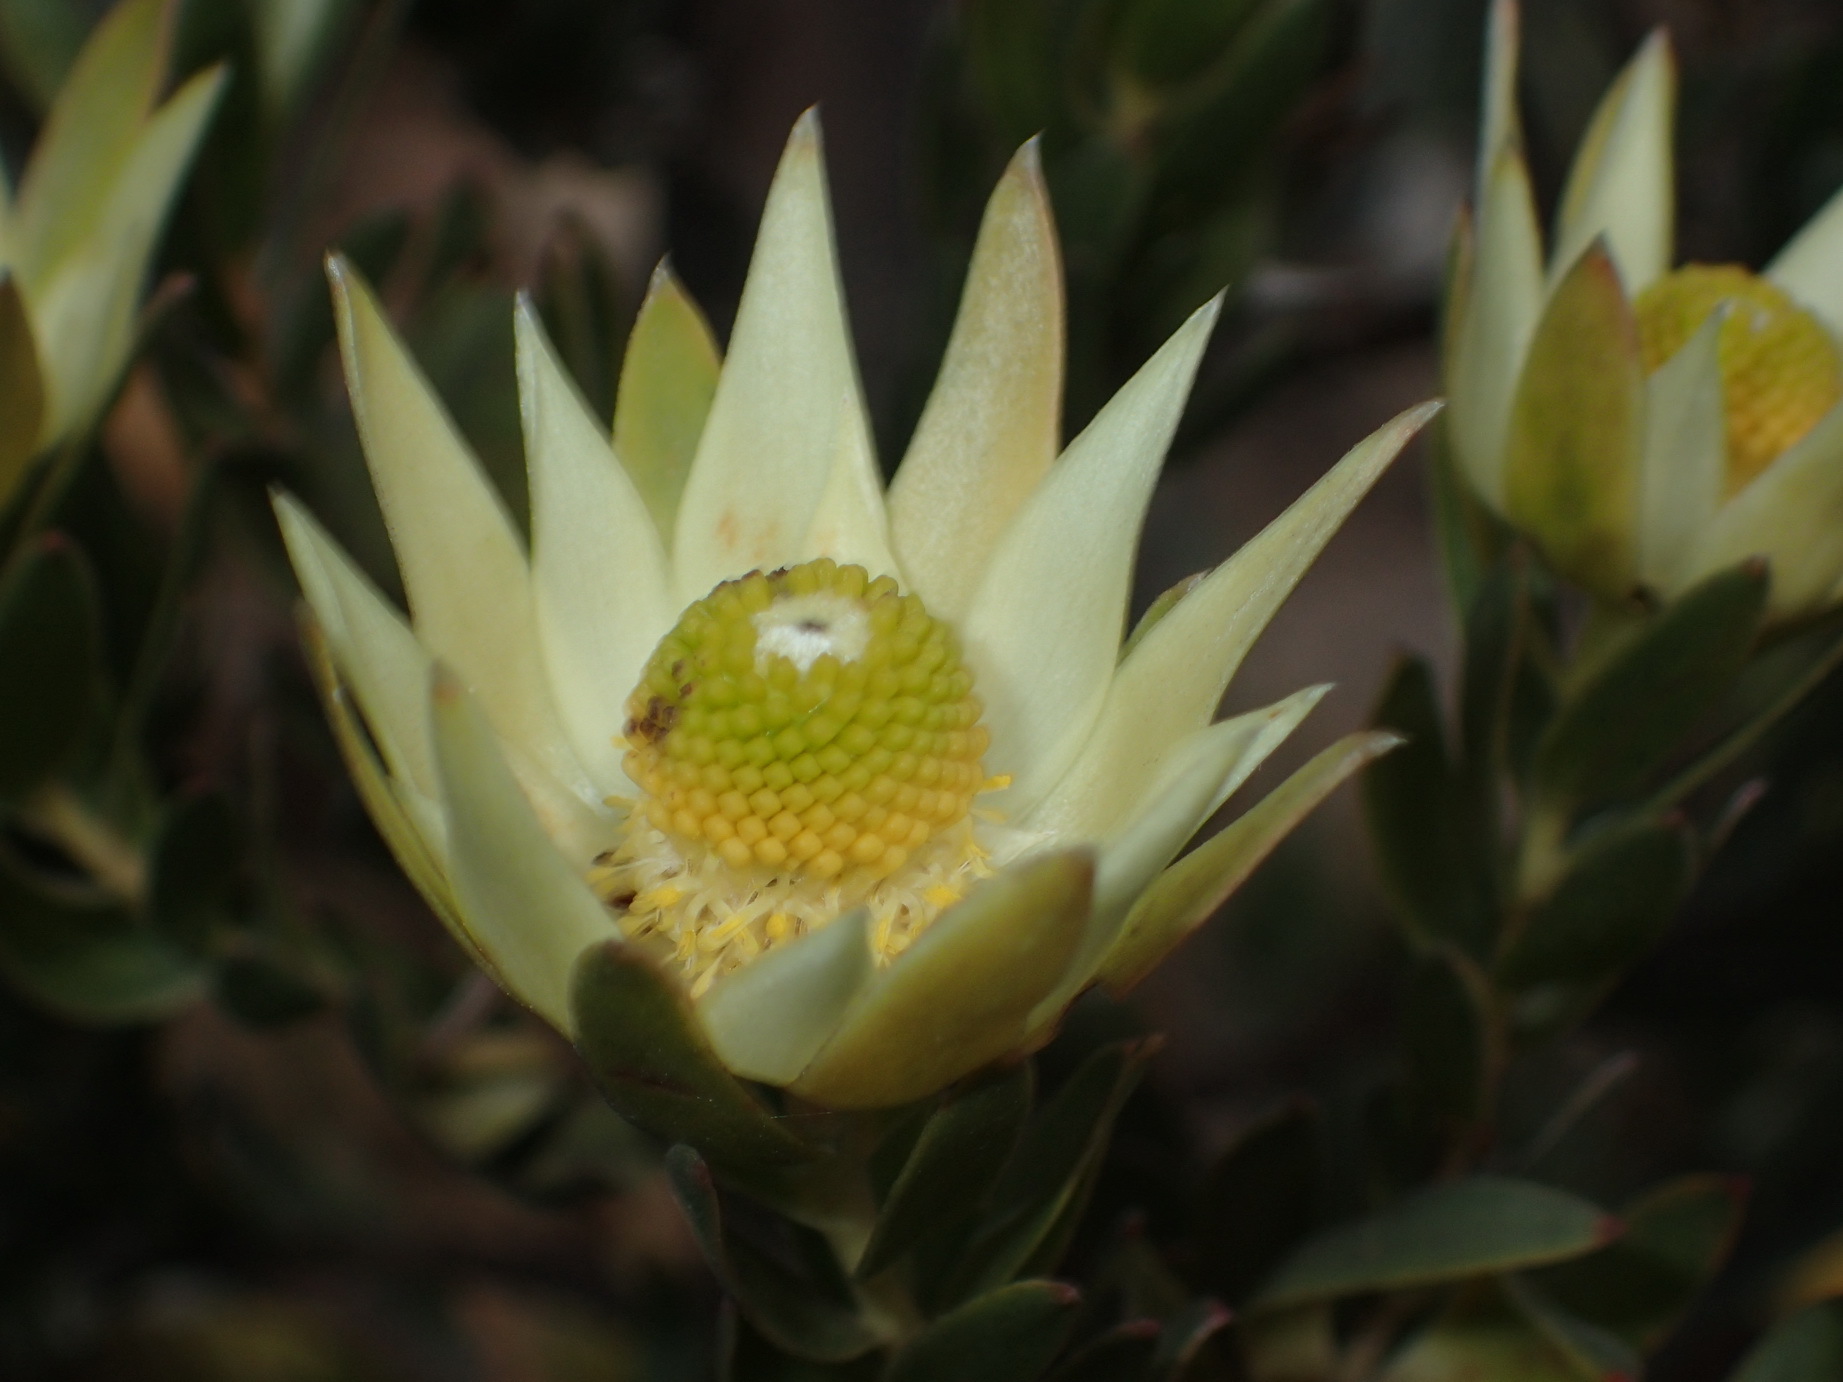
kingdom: Plantae
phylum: Tracheophyta
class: Magnoliopsida
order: Proteales
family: Proteaceae
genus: Leucadendron
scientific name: Leucadendron uliginosum
